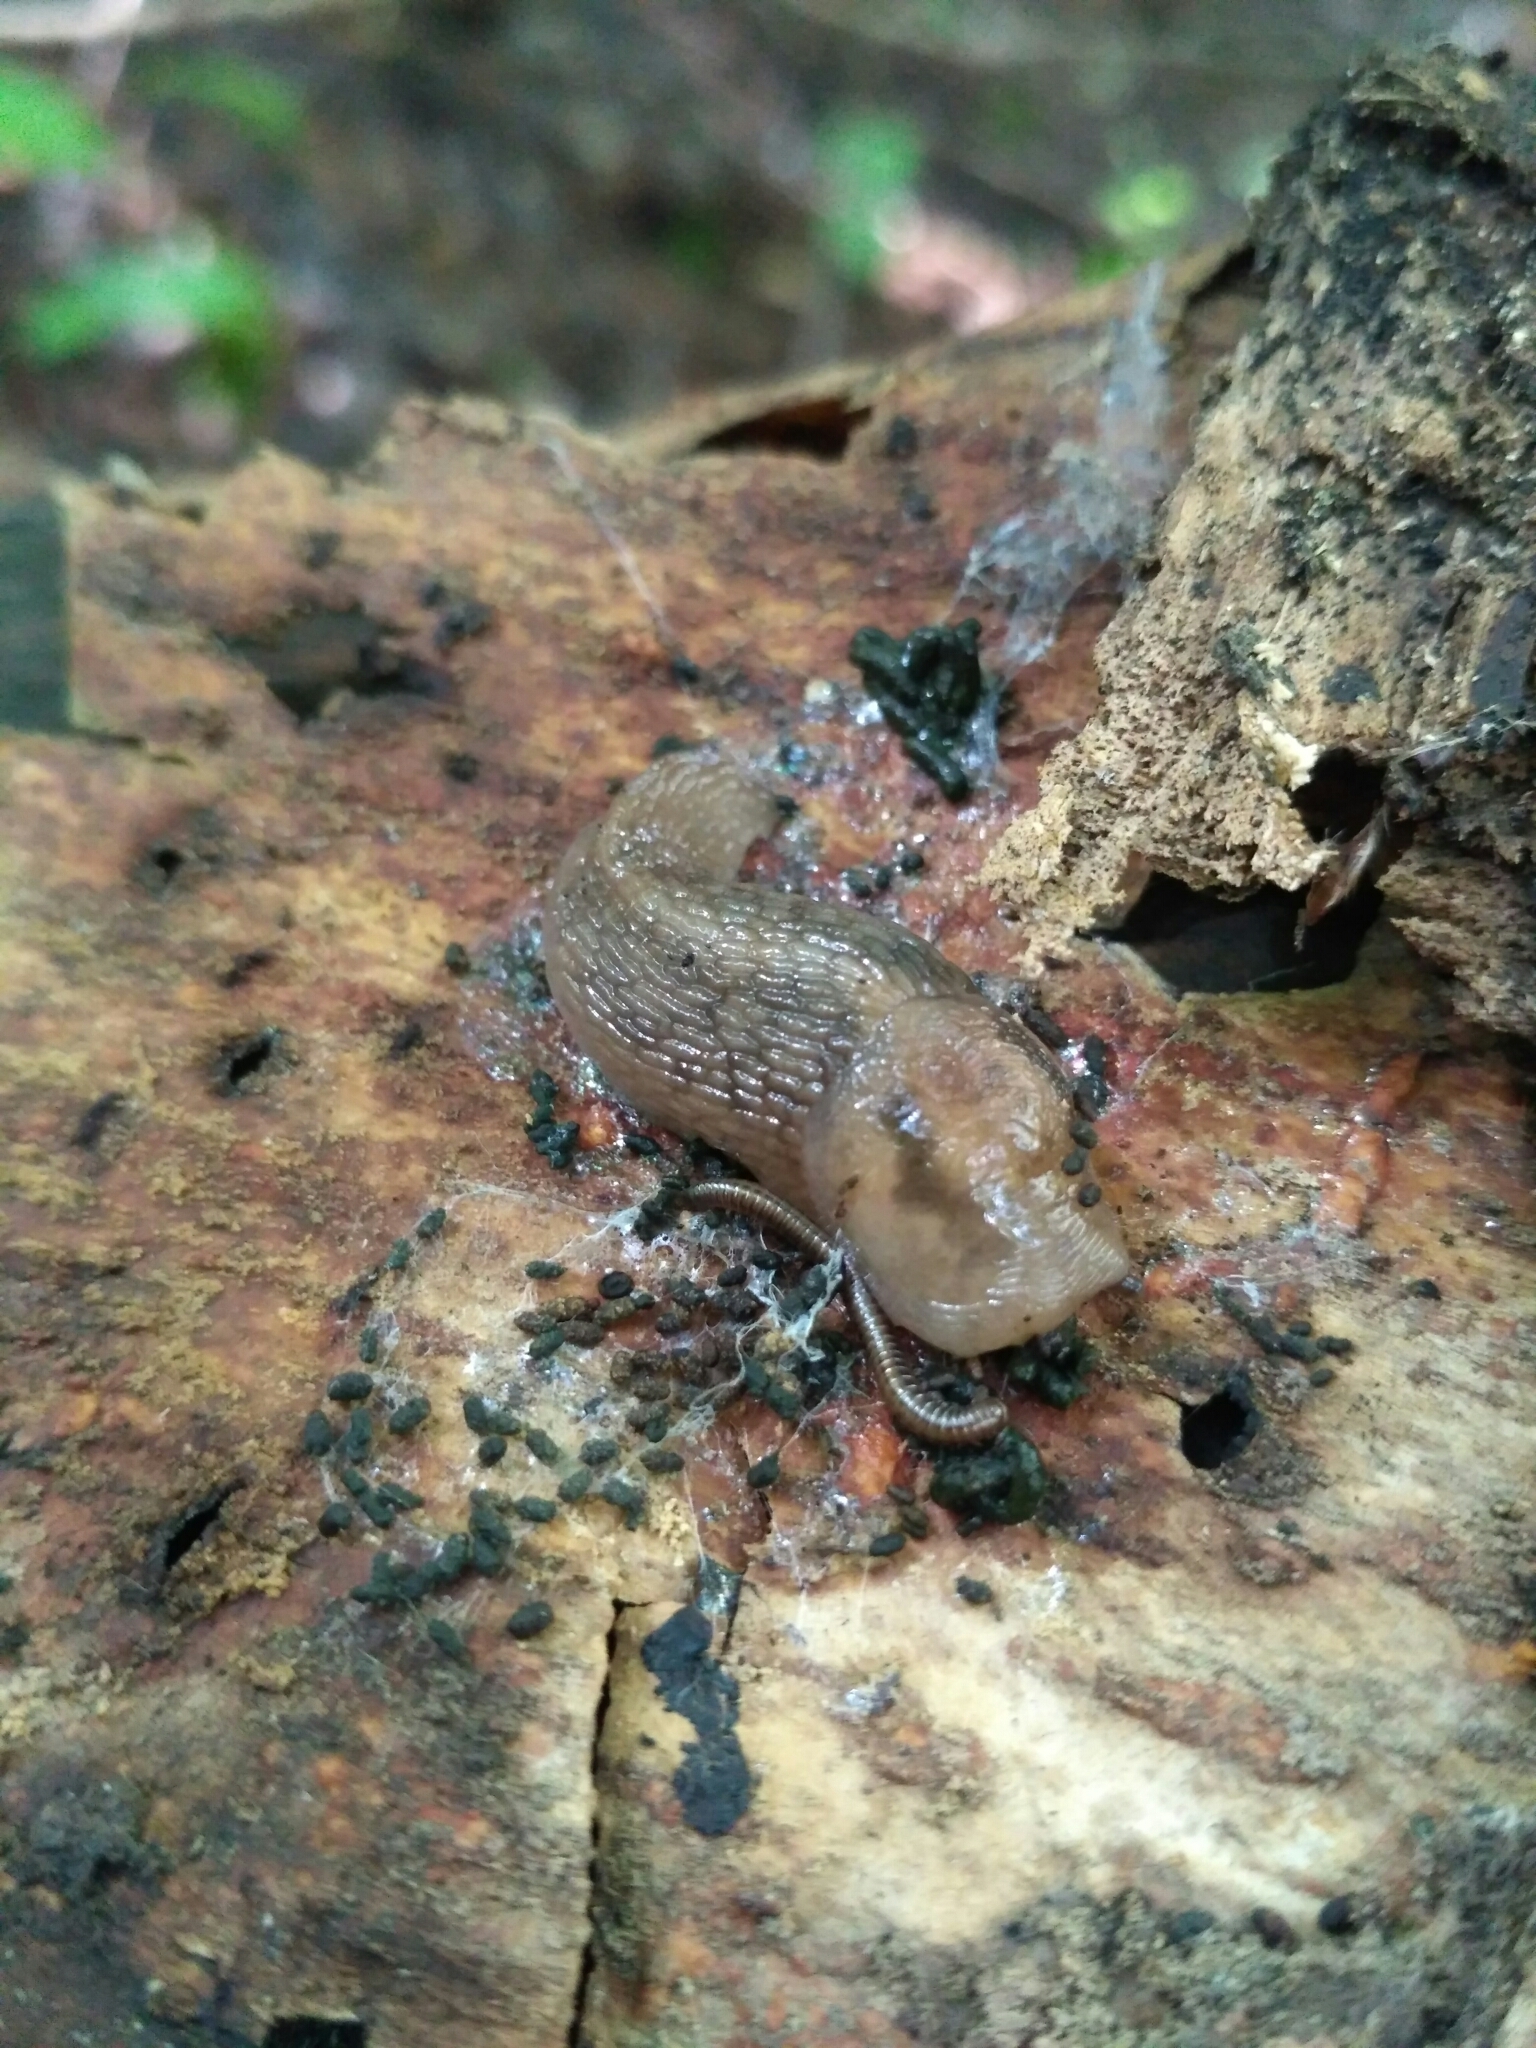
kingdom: Animalia
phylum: Mollusca
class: Gastropoda
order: Stylommatophora
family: Limacidae
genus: Lehmannia
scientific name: Lehmannia marginata
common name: Tree slug
